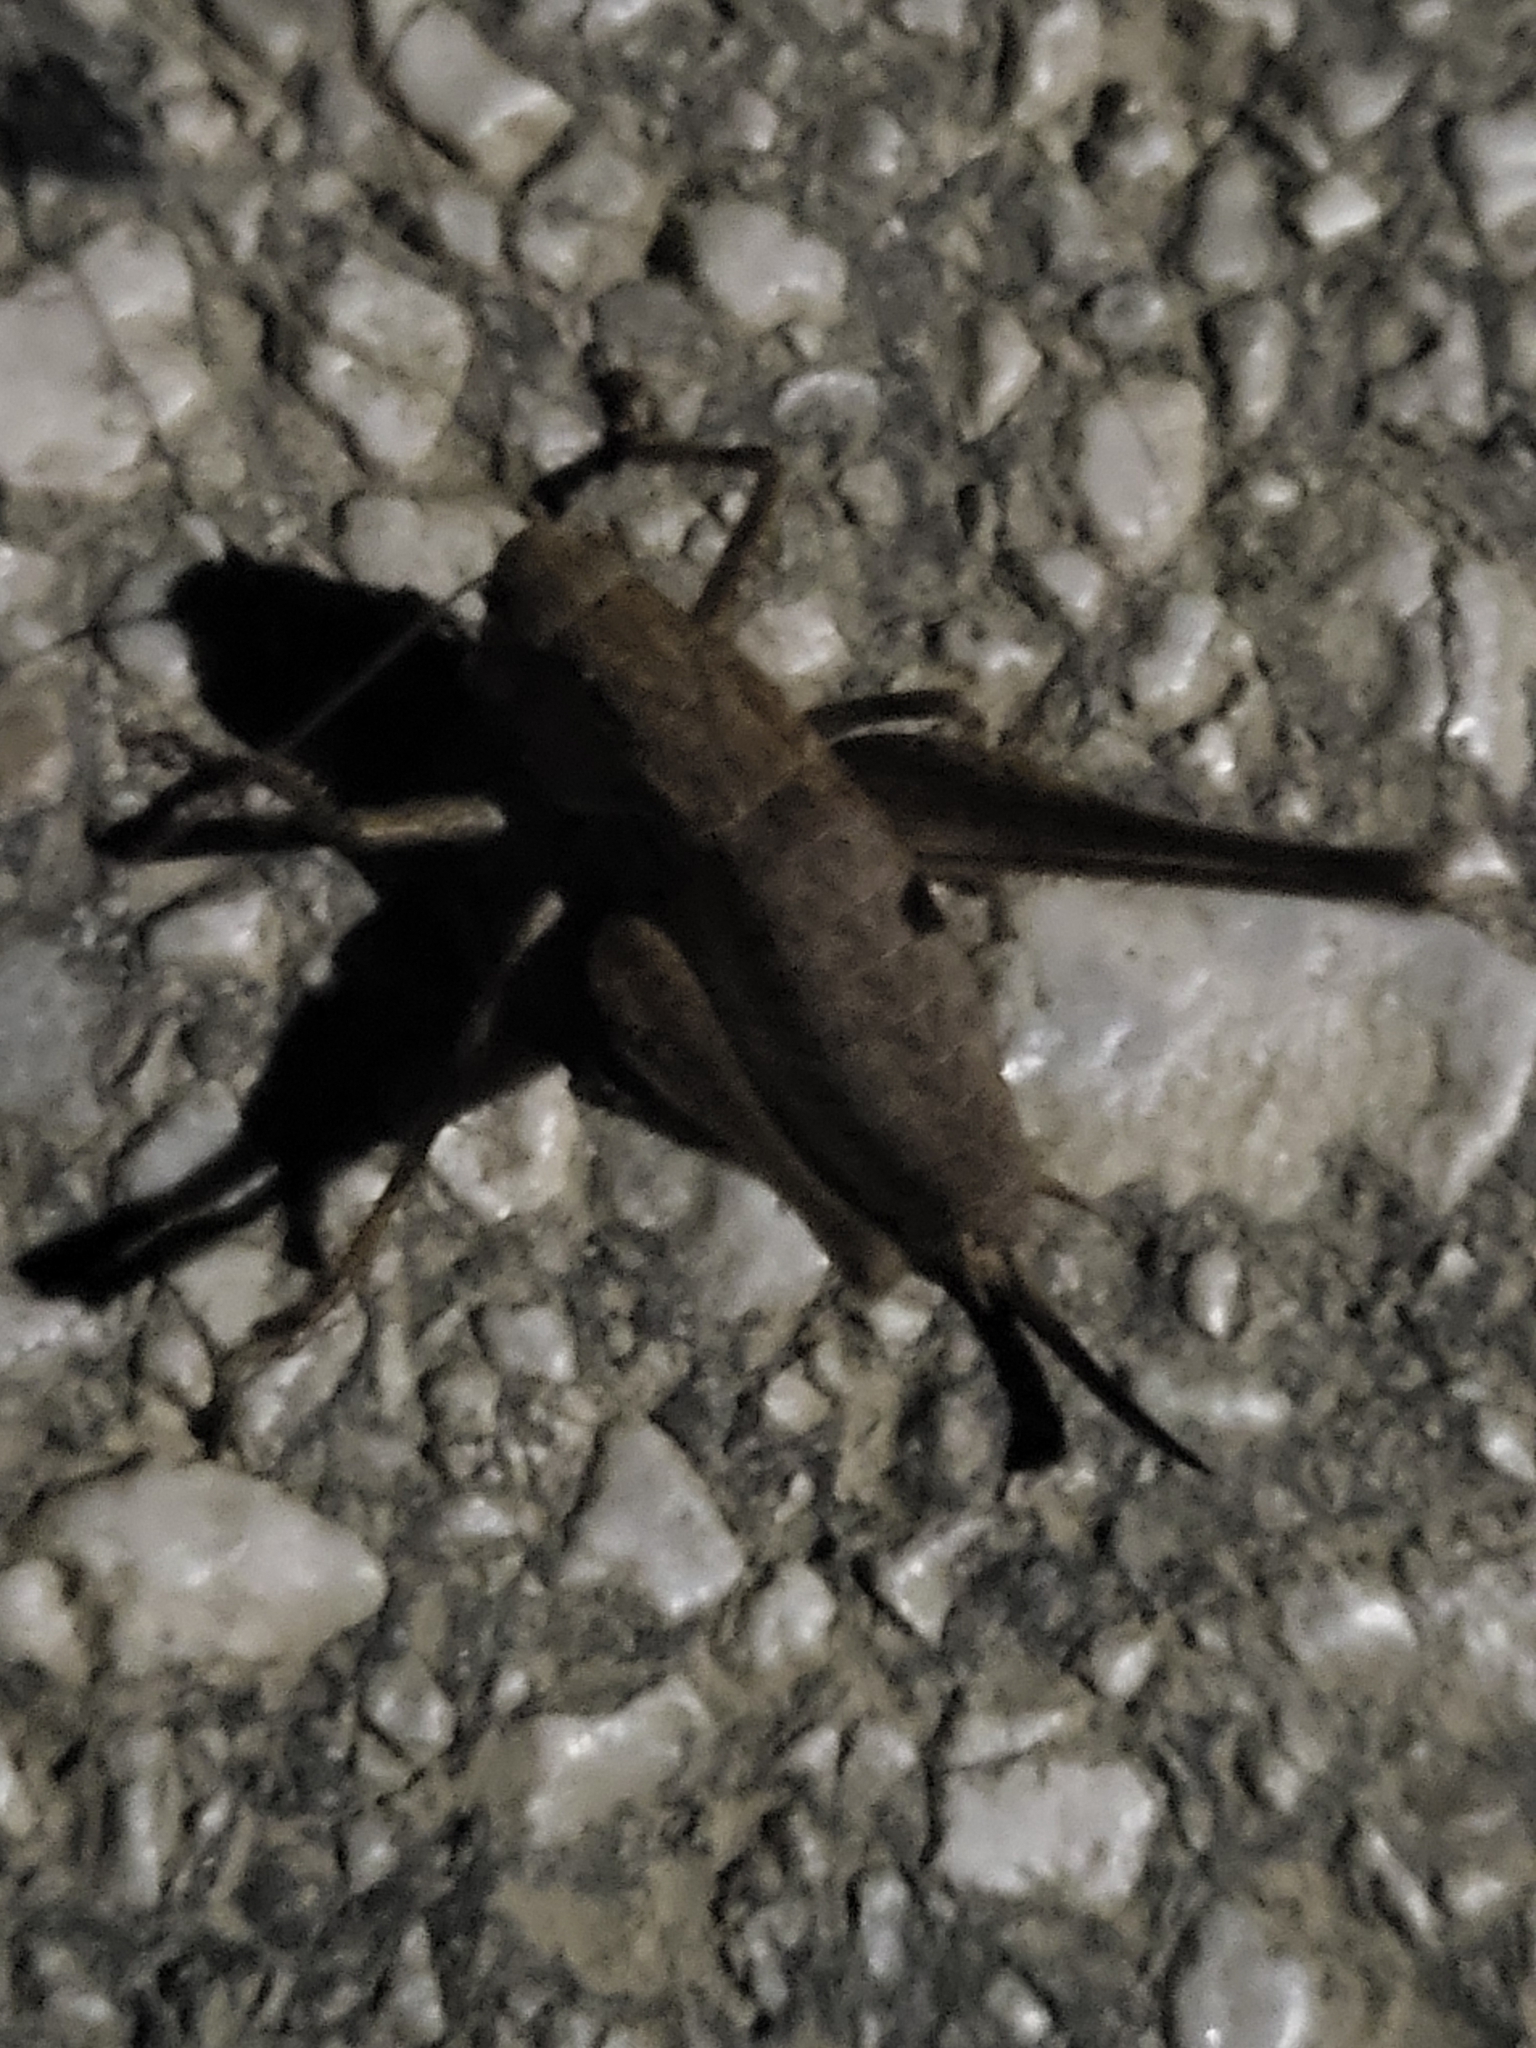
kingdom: Animalia
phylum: Arthropoda
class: Insecta
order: Orthoptera
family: Tettigoniidae
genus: Pholidoptera
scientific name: Pholidoptera griseoaptera
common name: Dark bush-cricket
